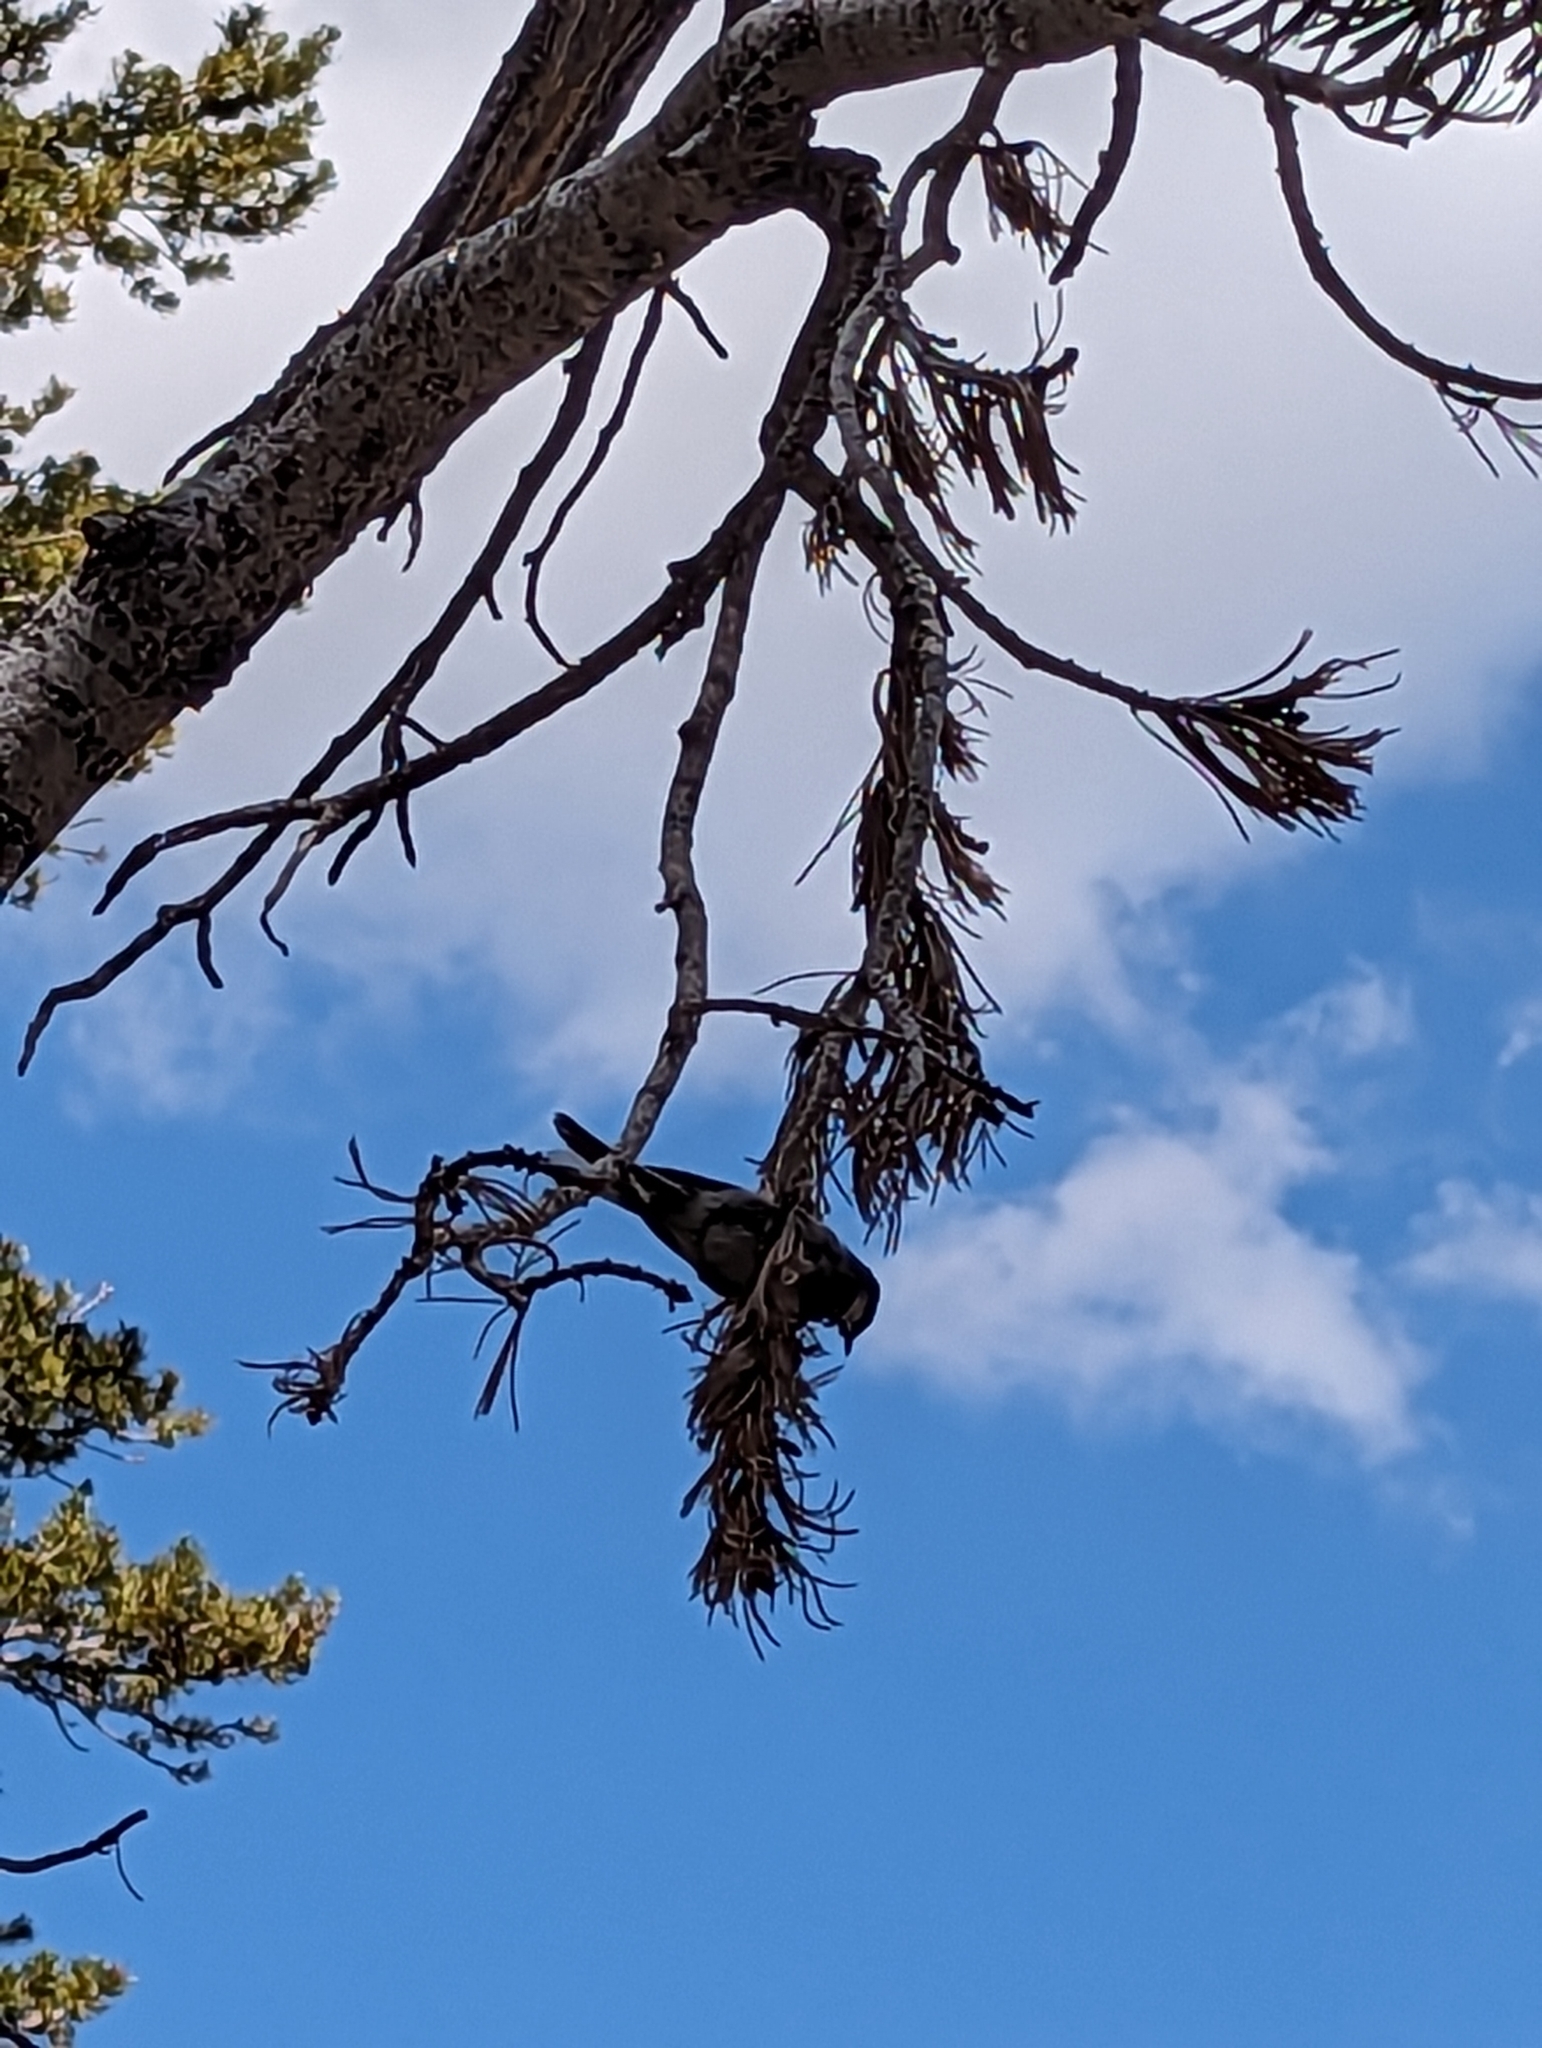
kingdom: Animalia
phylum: Chordata
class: Aves
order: Passeriformes
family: Paridae
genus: Poecile
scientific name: Poecile gambeli
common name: Mountain chickadee
